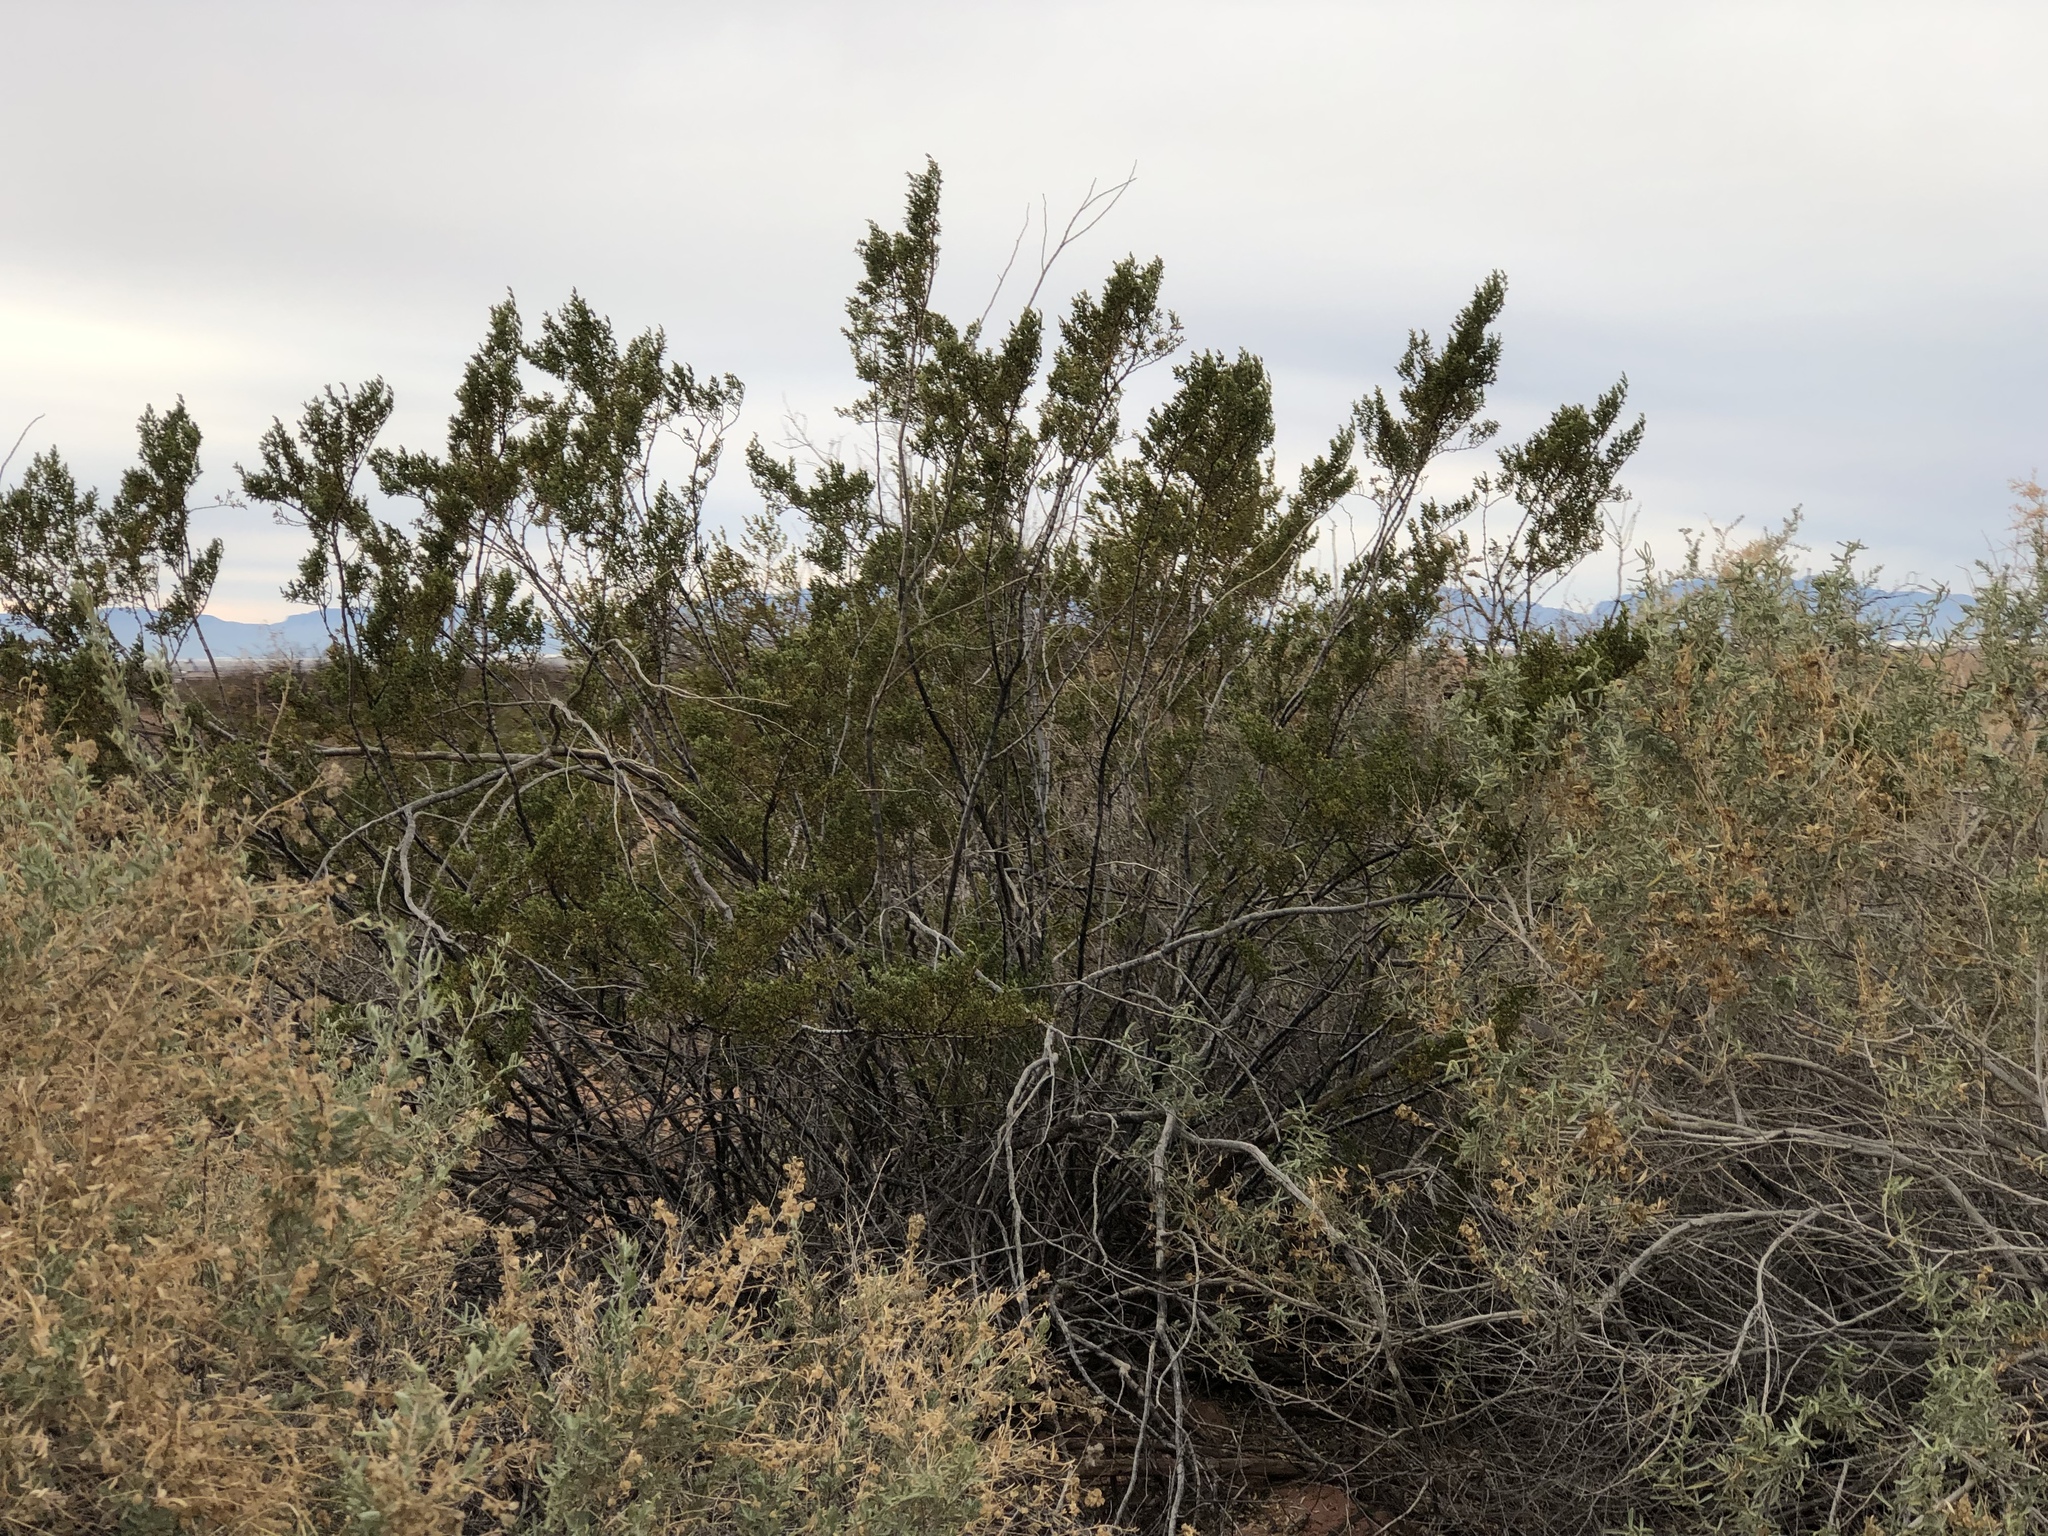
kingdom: Plantae
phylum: Tracheophyta
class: Magnoliopsida
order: Zygophyllales
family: Zygophyllaceae
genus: Larrea
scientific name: Larrea tridentata
